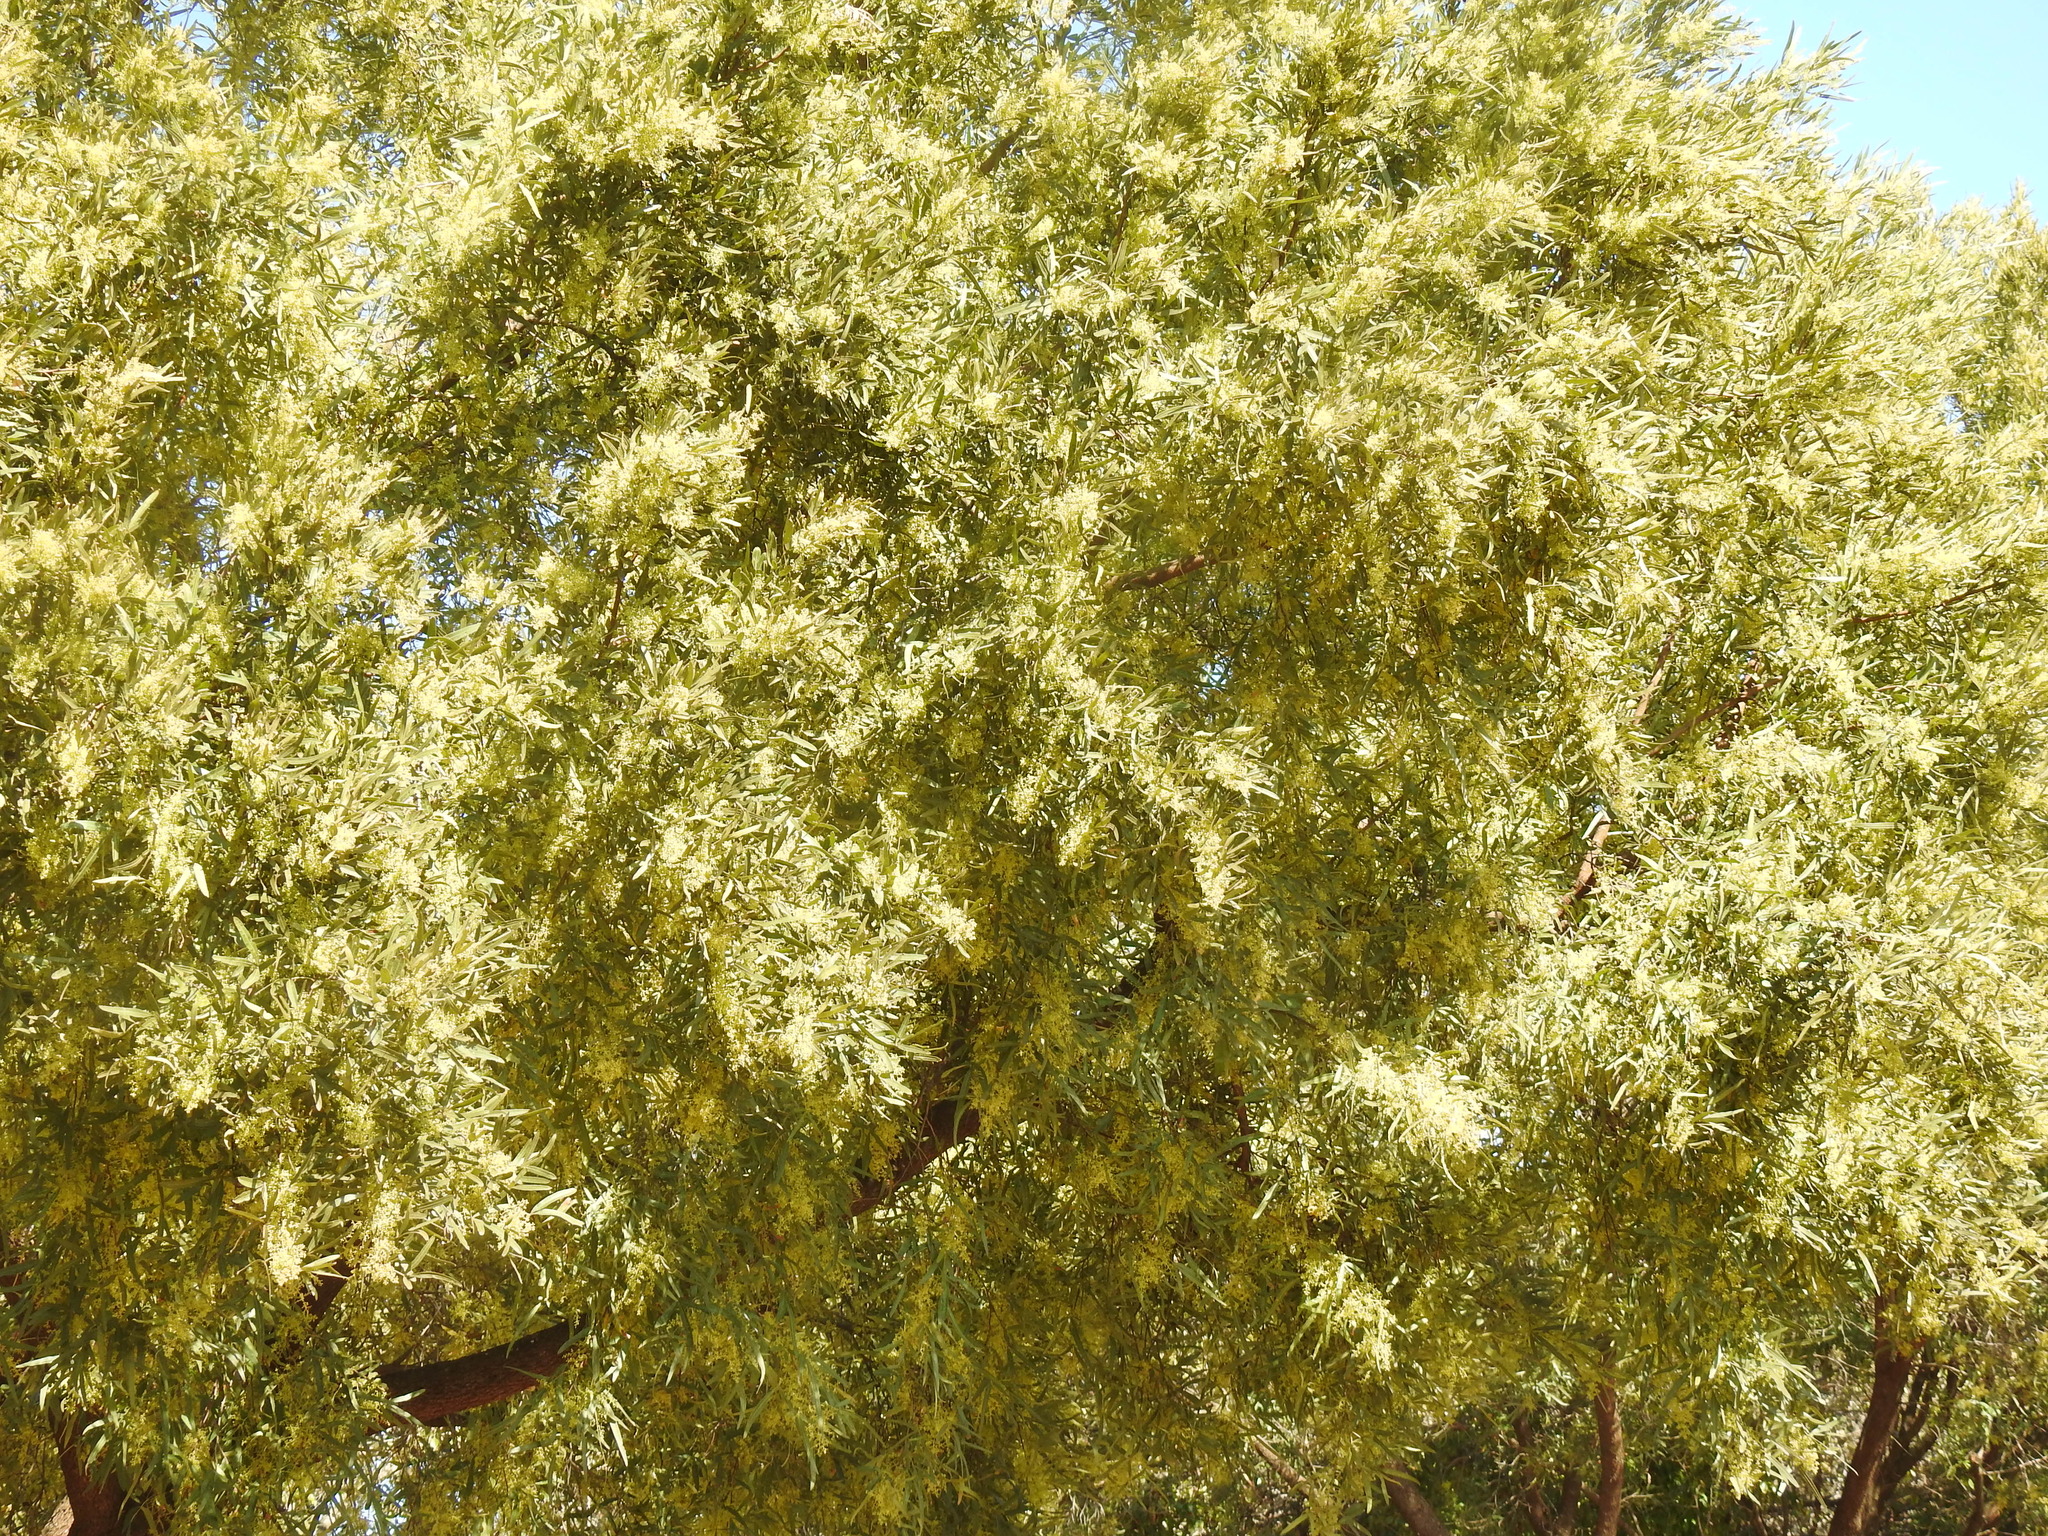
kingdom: Plantae
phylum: Tracheophyta
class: Magnoliopsida
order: Sapindales
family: Anacardiaceae
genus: Searsia
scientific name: Searsia lancea
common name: Cashew
